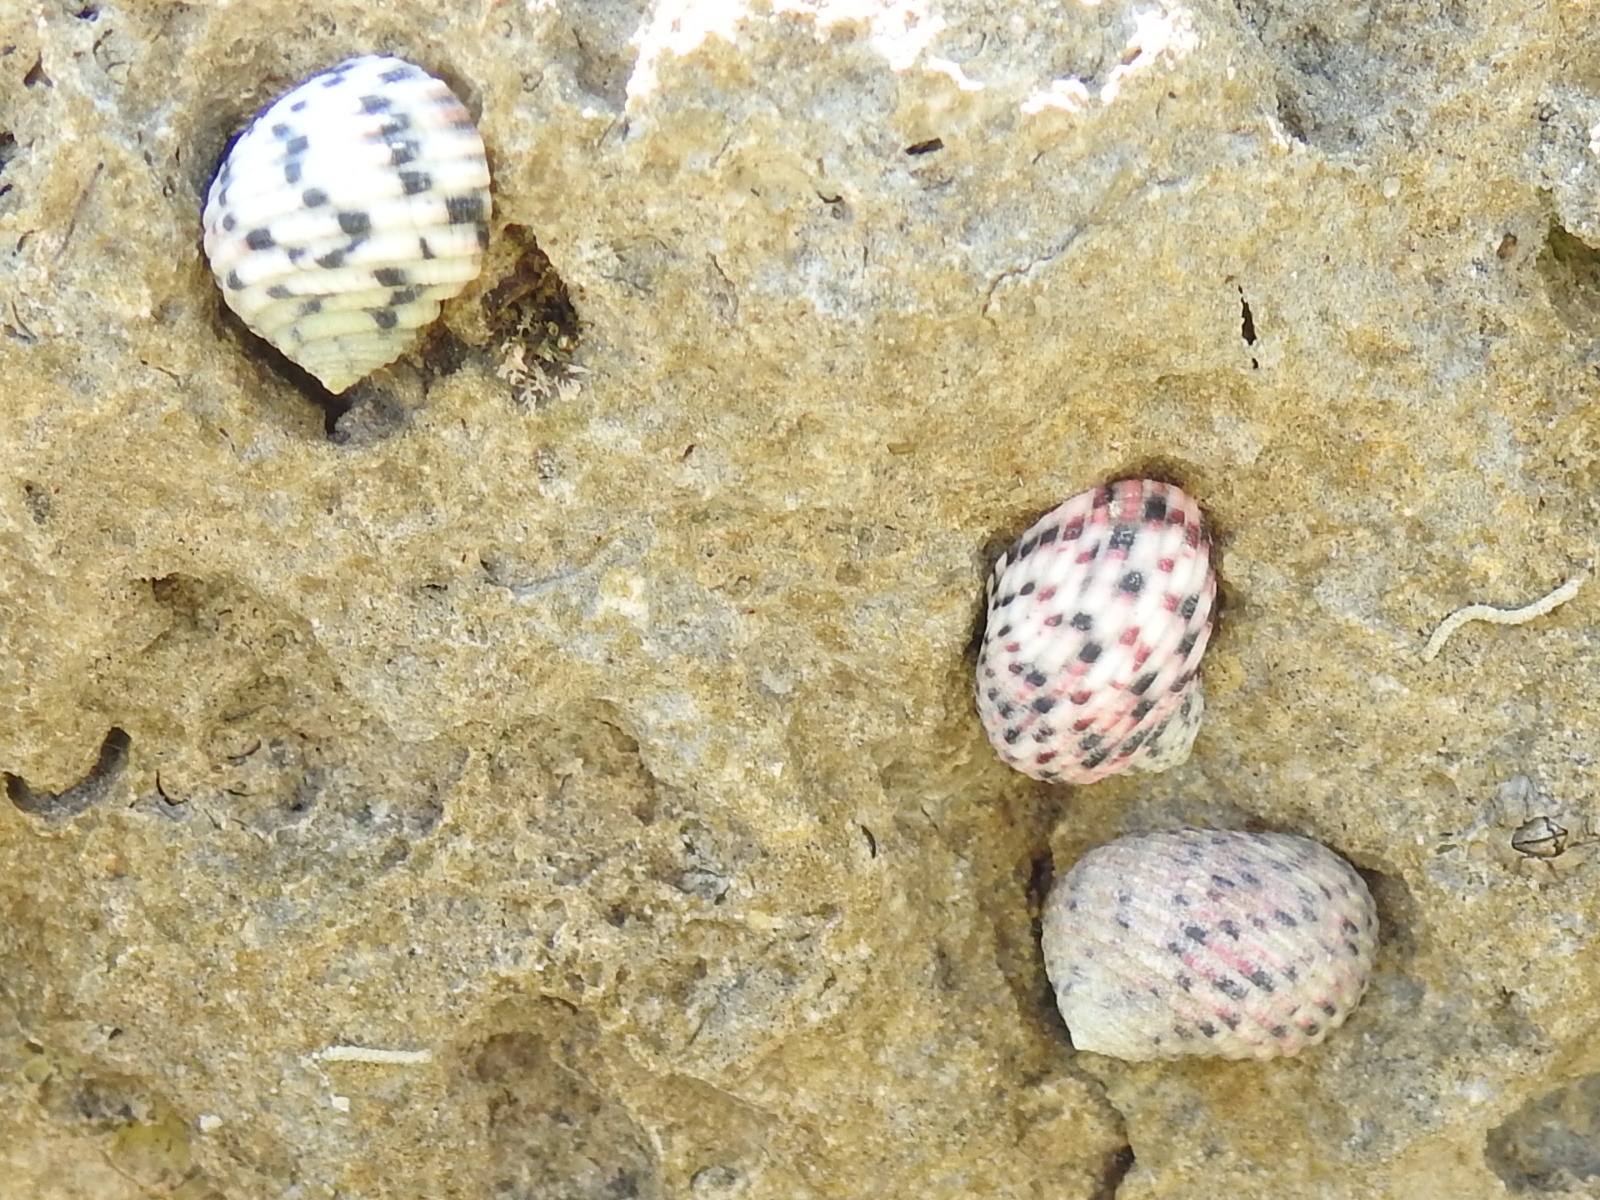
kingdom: Animalia
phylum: Mollusca
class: Gastropoda
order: Cycloneritida
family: Neritidae
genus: Nerita
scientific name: Nerita versicolor
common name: Four-tooth nerite
